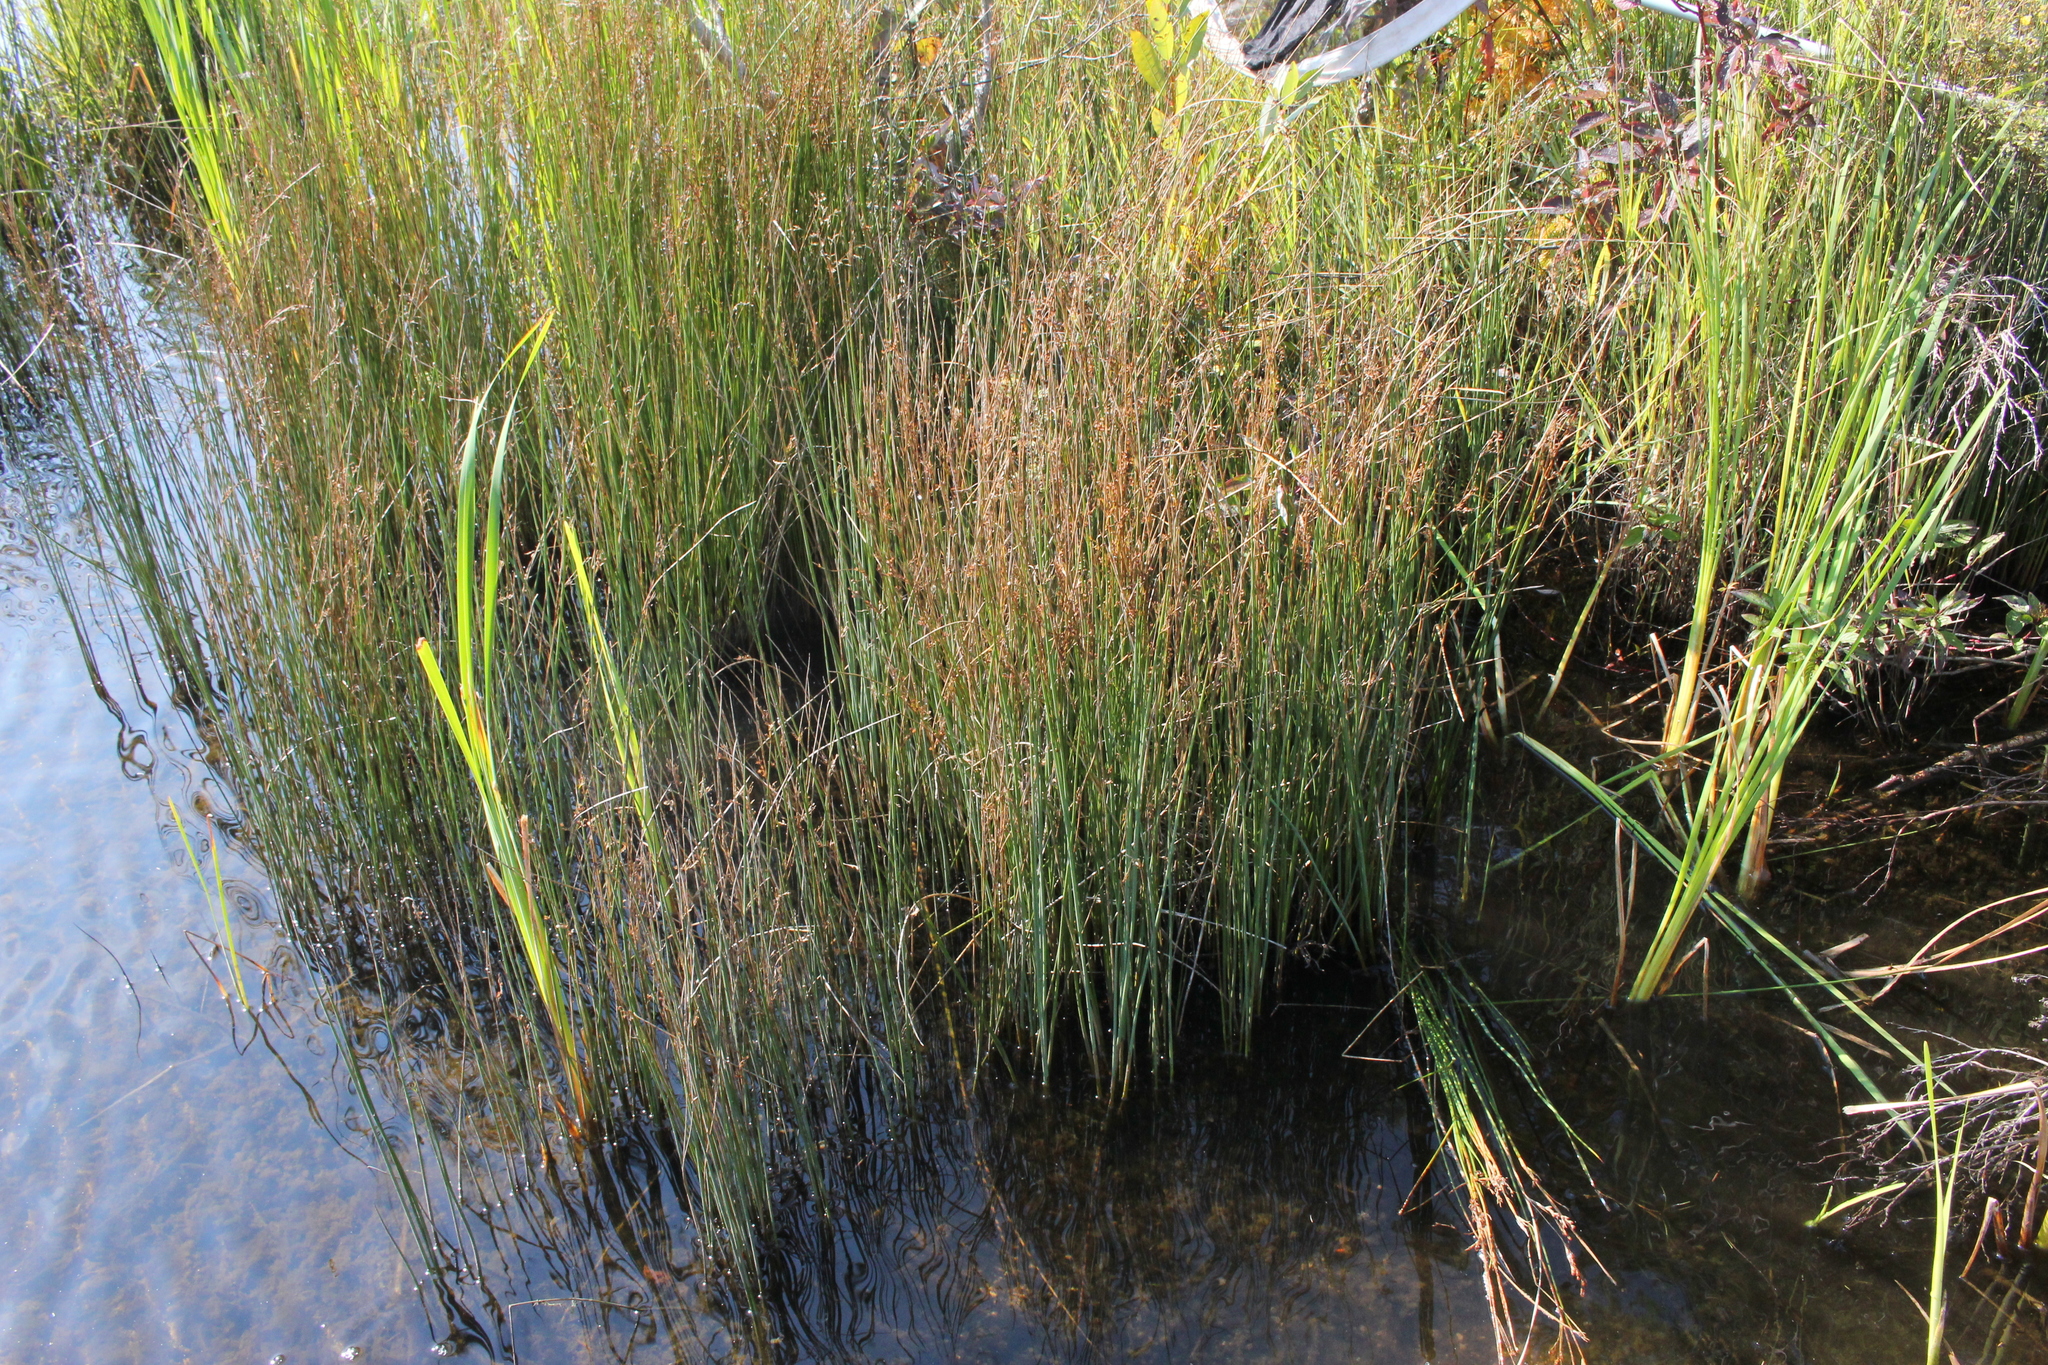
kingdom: Plantae
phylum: Tracheophyta
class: Liliopsida
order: Poales
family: Juncaceae
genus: Juncus
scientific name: Juncus balticus
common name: Baltic rush
